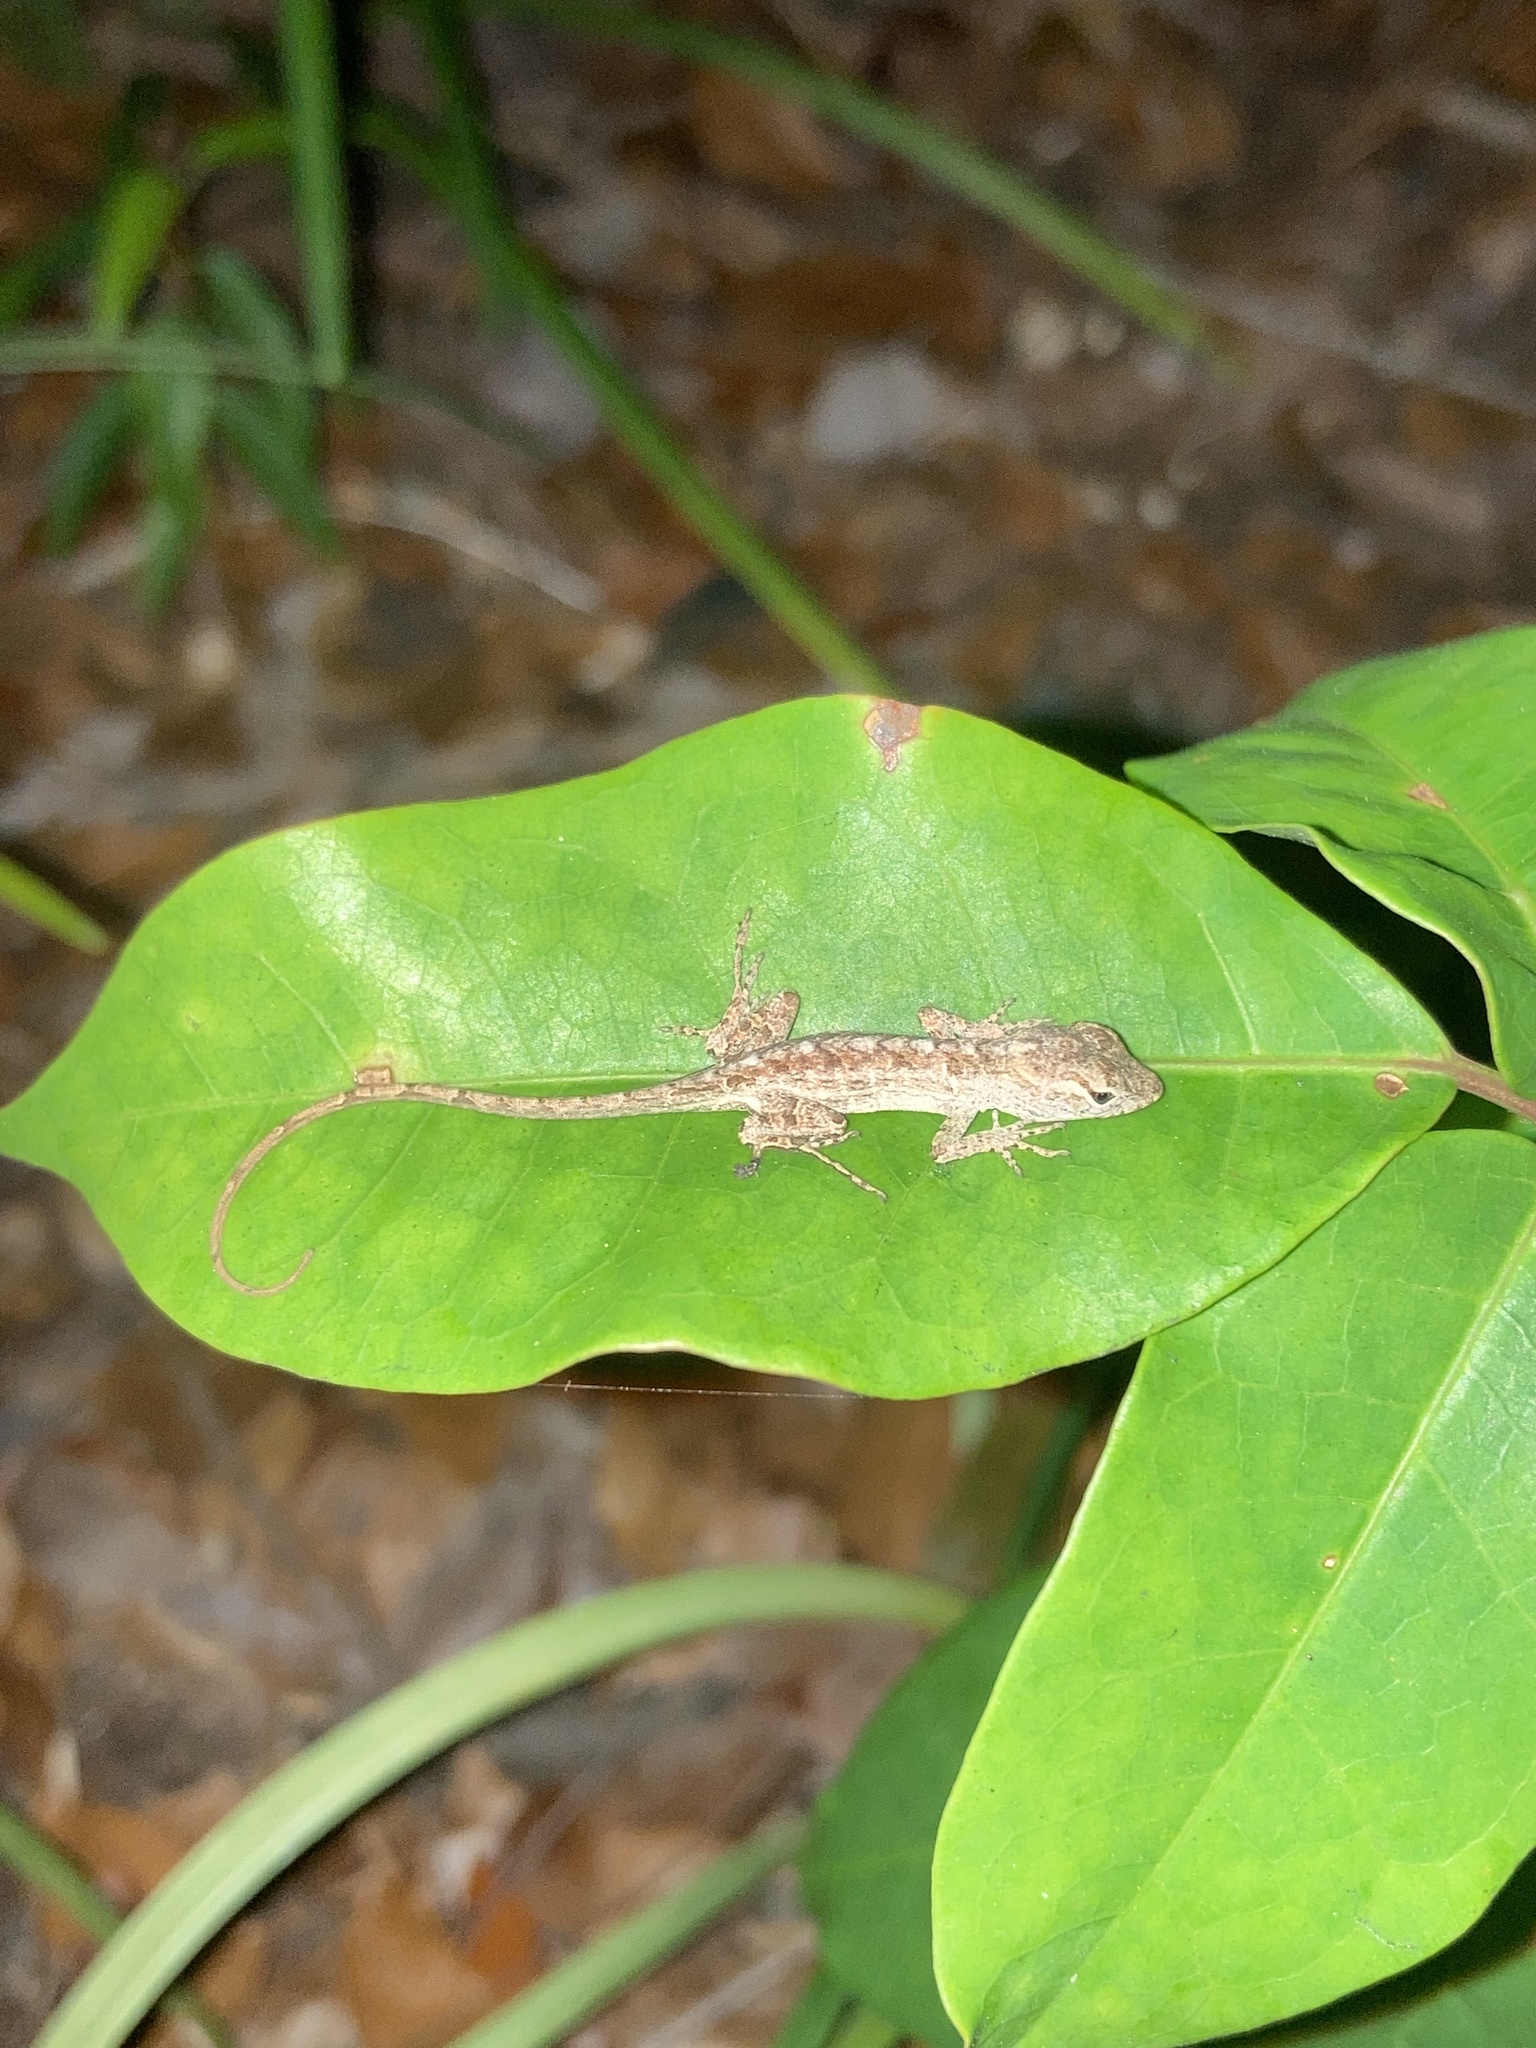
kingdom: Animalia
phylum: Chordata
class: Squamata
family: Dactyloidae
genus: Anolis
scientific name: Anolis sagrei
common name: Brown anole
